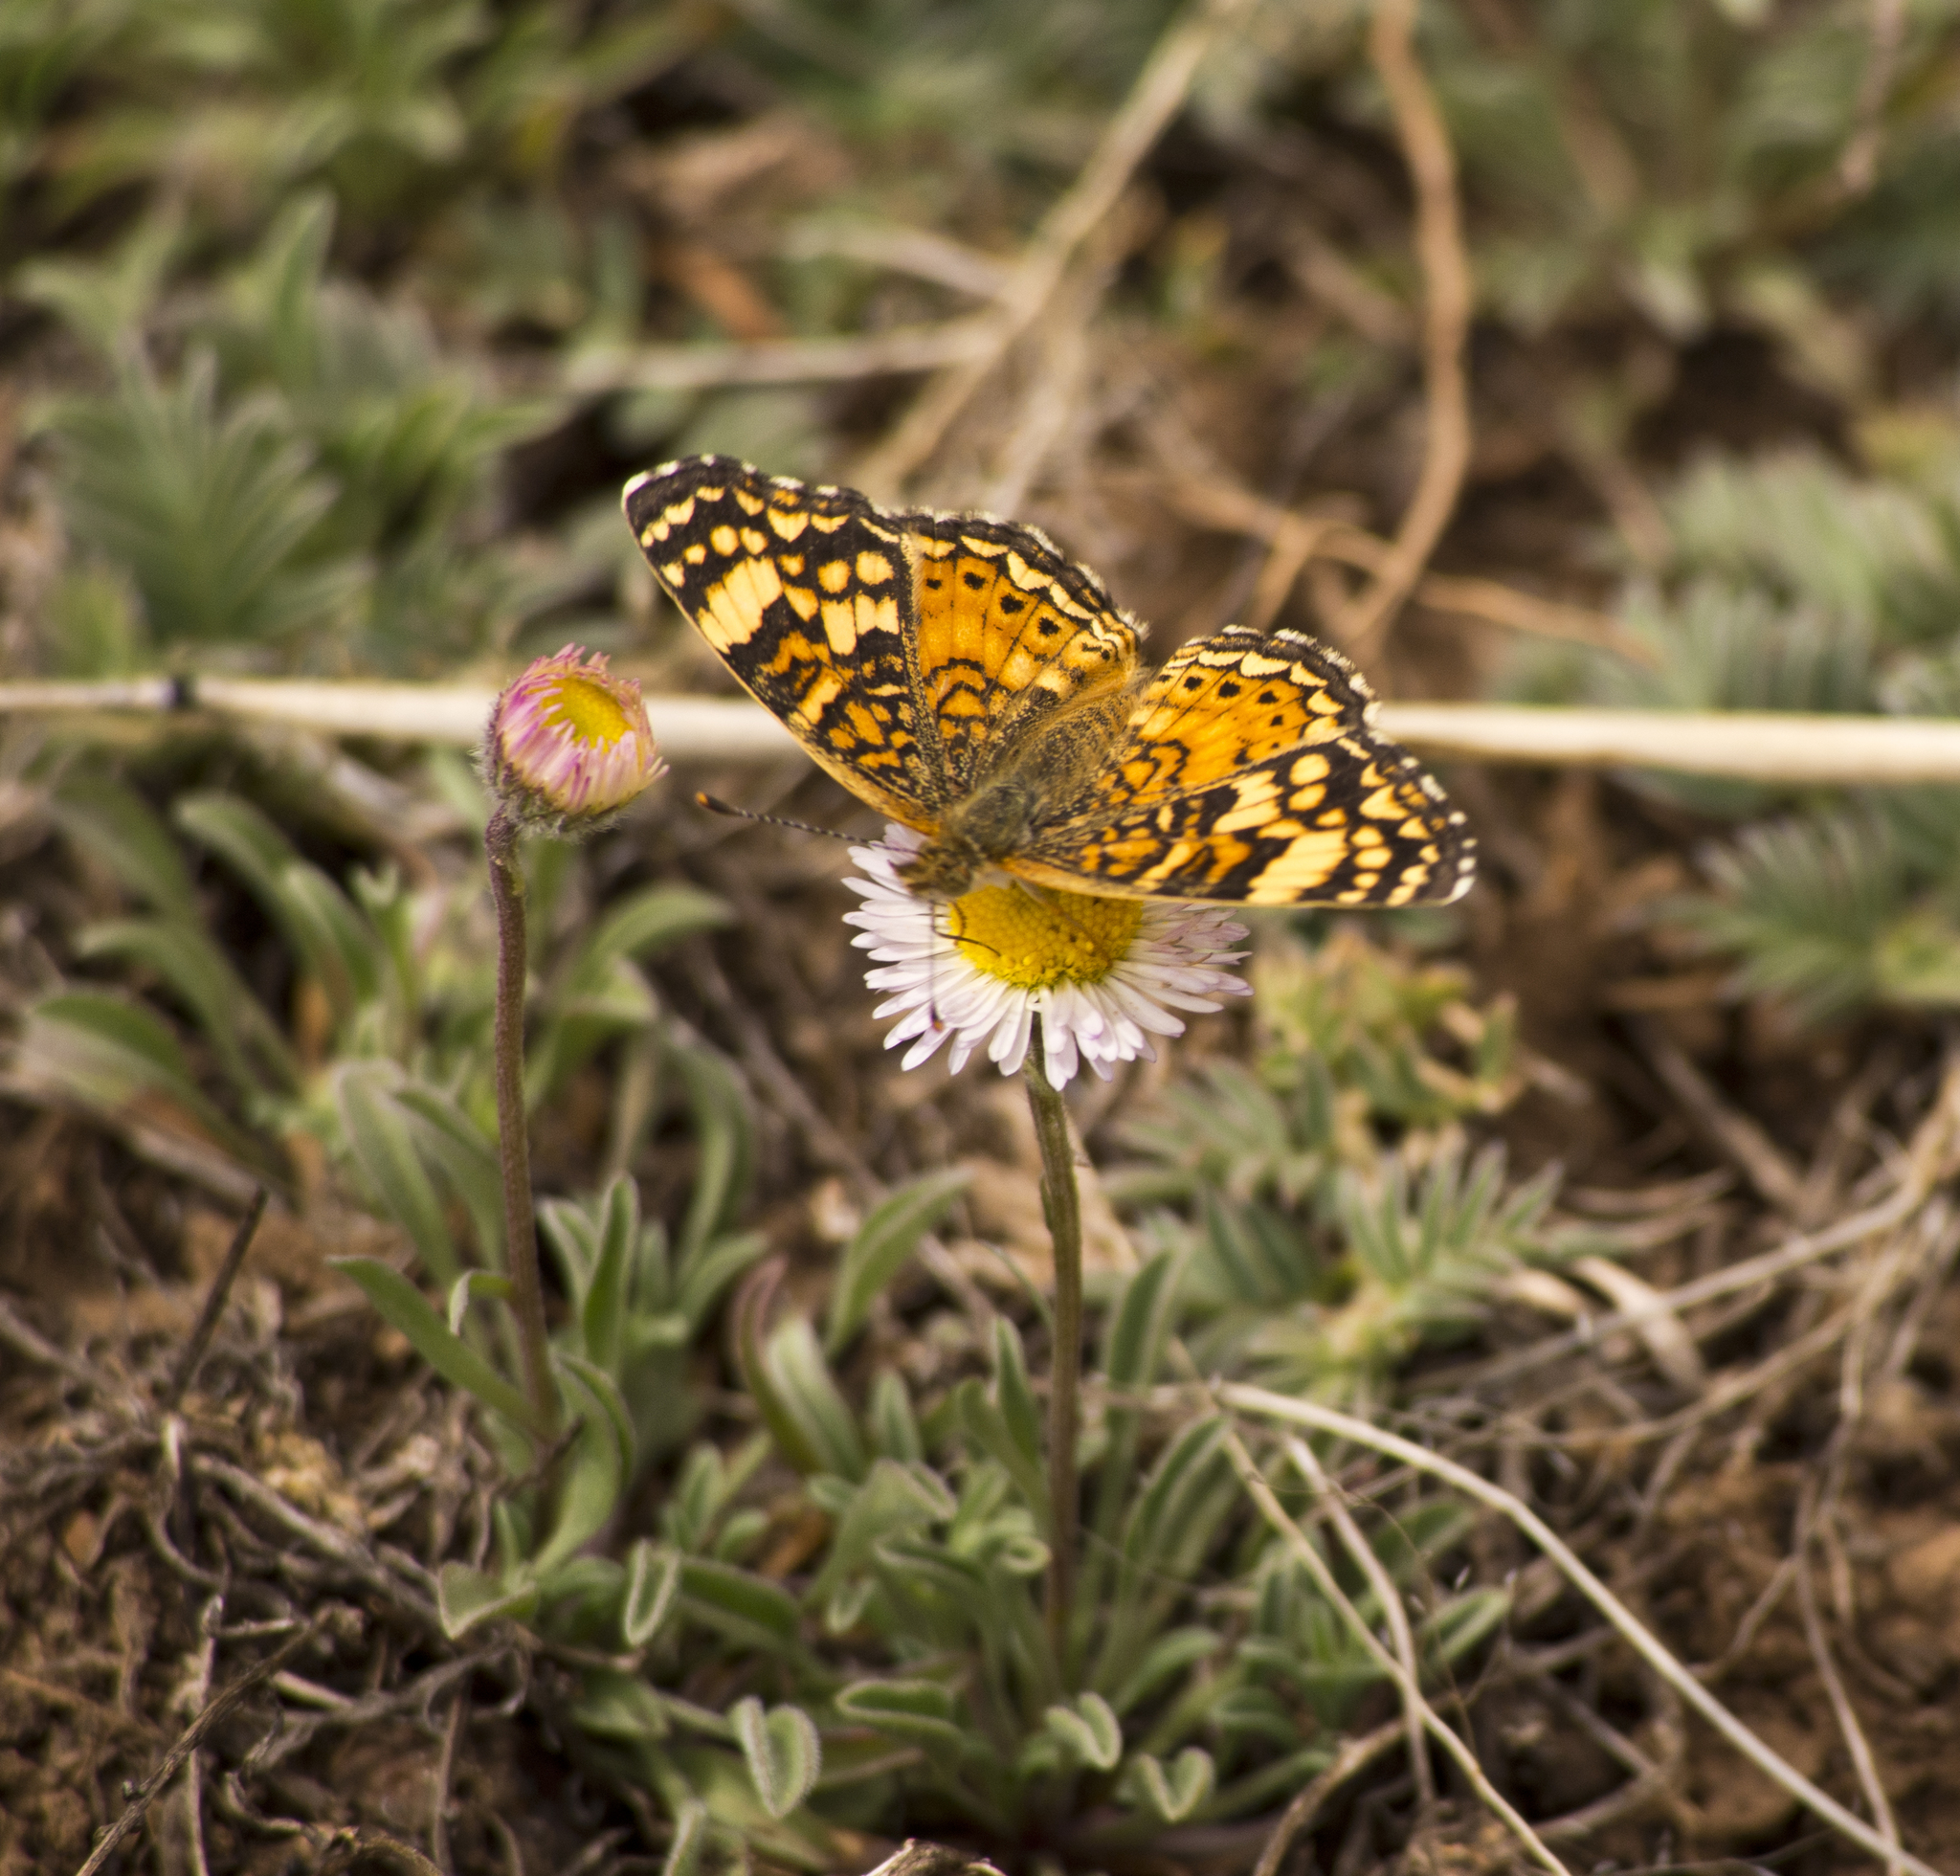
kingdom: Animalia
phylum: Arthropoda
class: Insecta
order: Lepidoptera
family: Nymphalidae
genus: Eresia
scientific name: Eresia aveyrona
